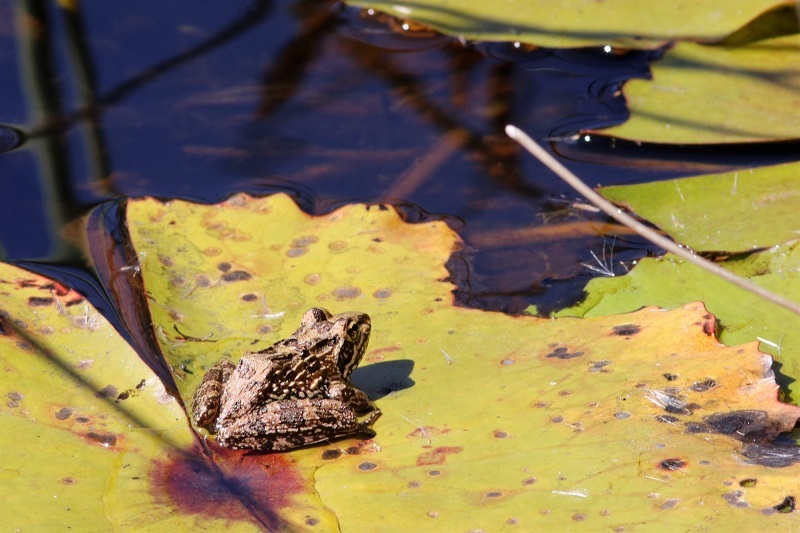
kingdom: Animalia
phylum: Chordata
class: Amphibia
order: Anura
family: Pyxicephalidae
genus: Amietia
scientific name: Amietia fuscigula
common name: Cape rana
